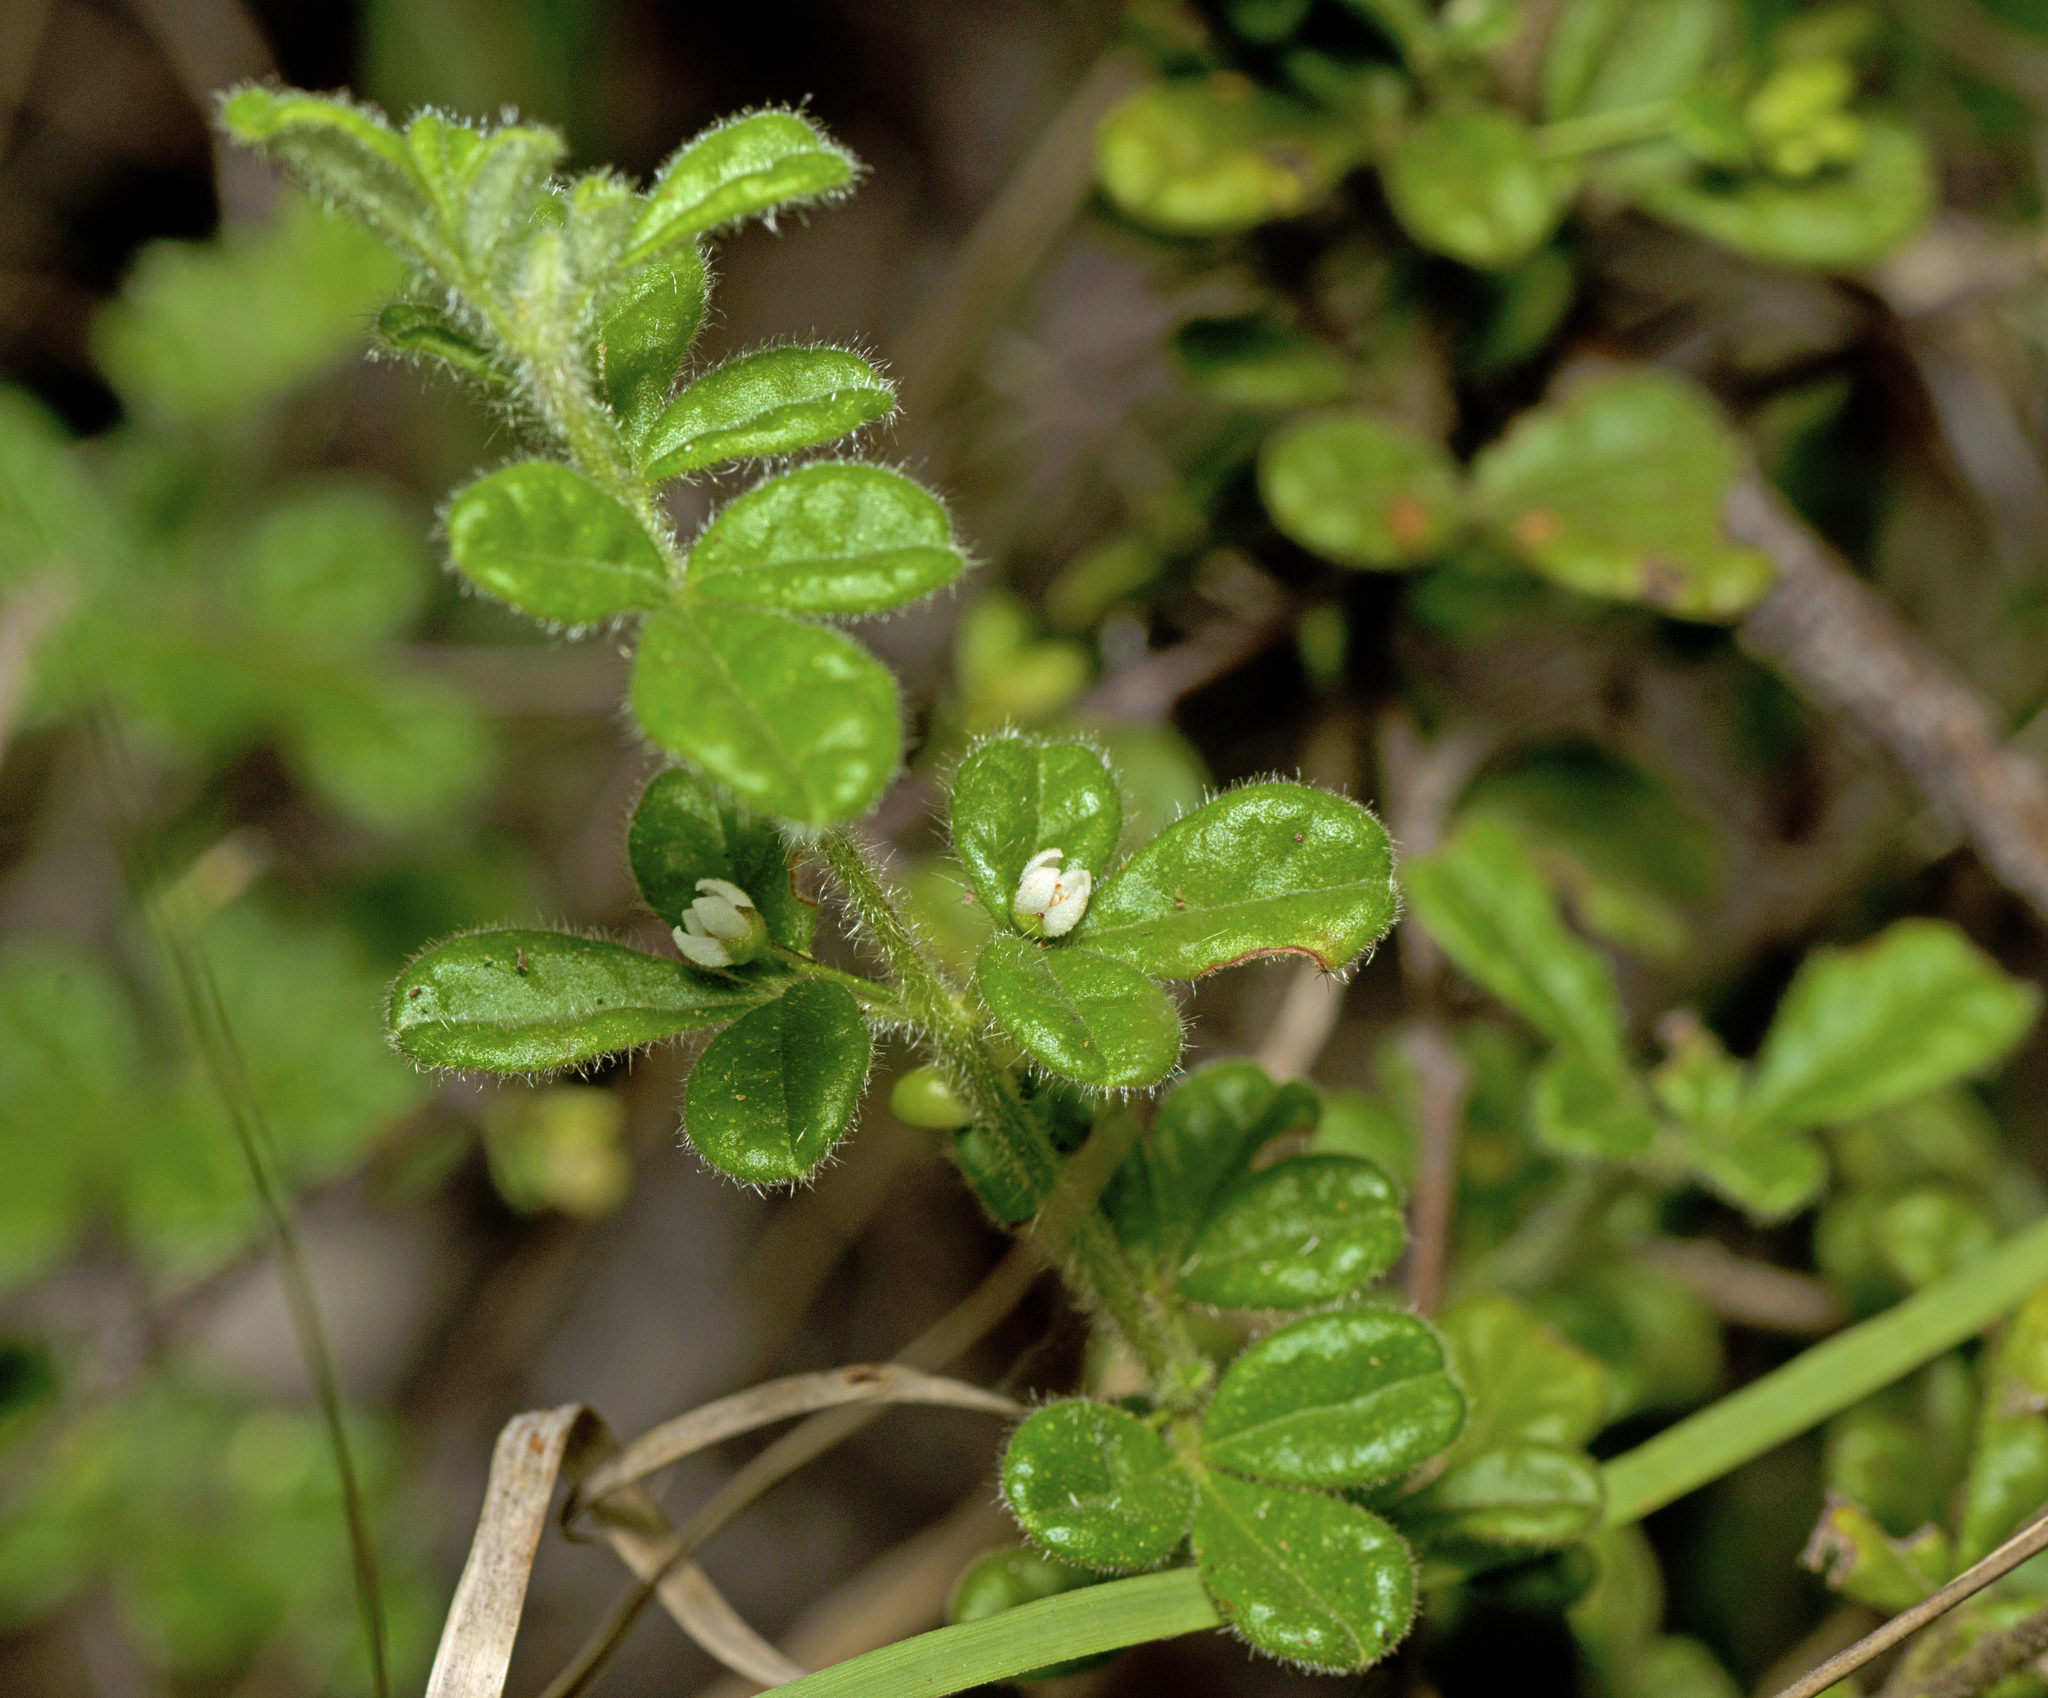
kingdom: Plantae
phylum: Tracheophyta
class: Magnoliopsida
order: Sapindales
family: Rutaceae
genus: Zieria
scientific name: Zieria minutiflora
